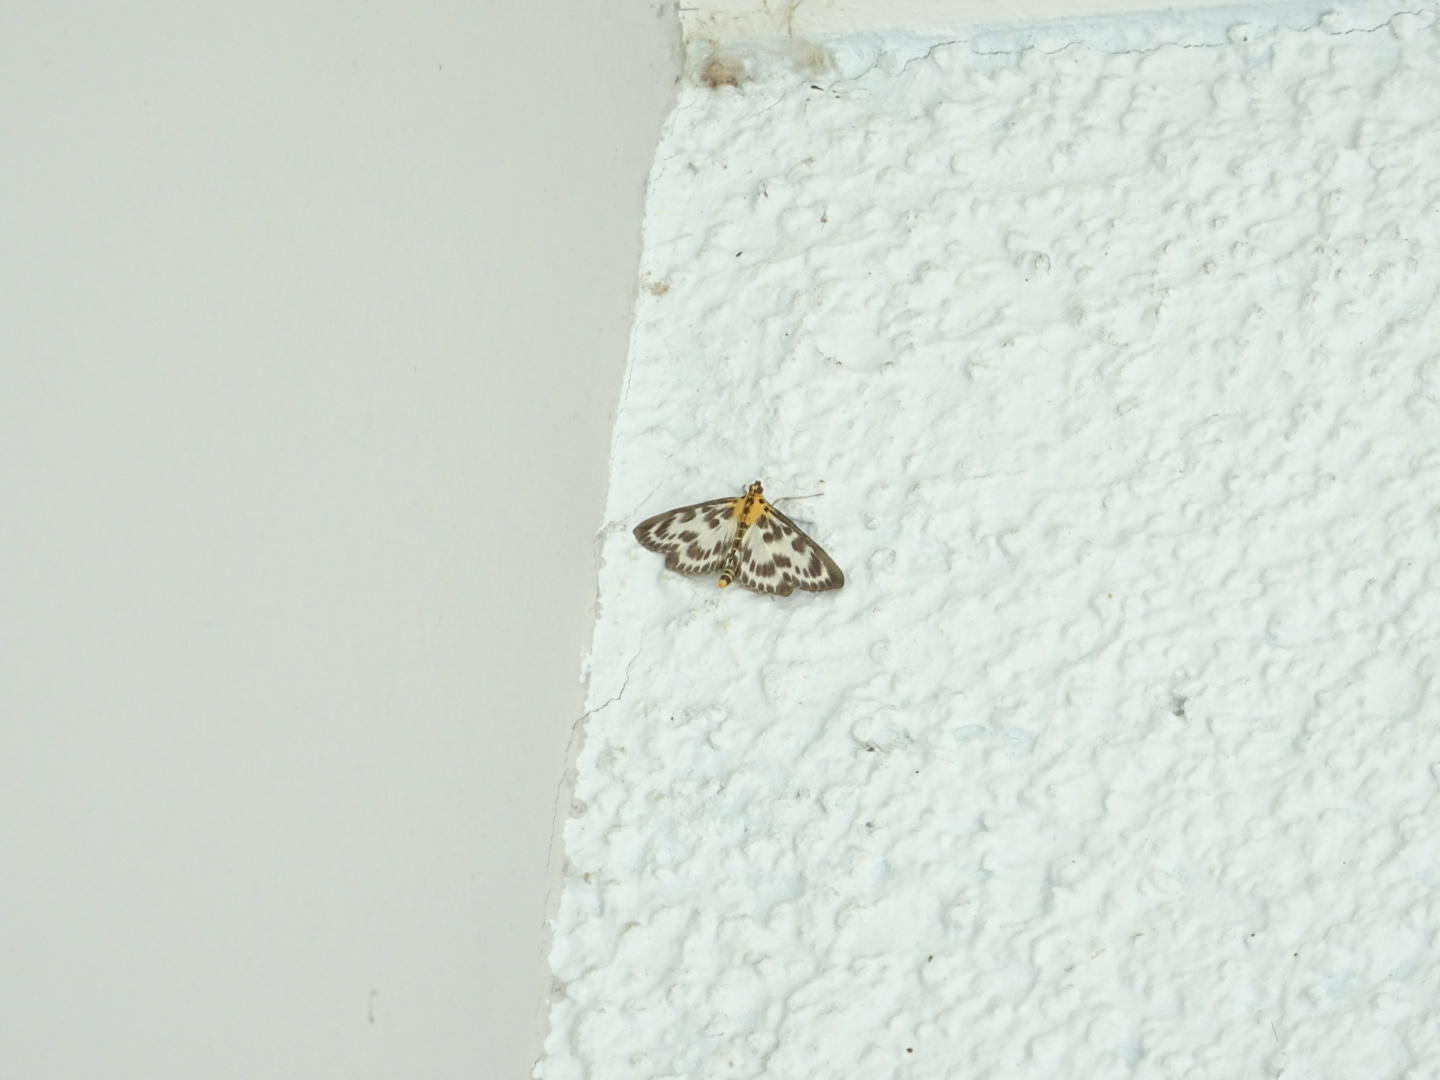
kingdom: Animalia
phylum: Arthropoda
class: Insecta
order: Lepidoptera
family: Crambidae
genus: Anania
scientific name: Anania hortulata
